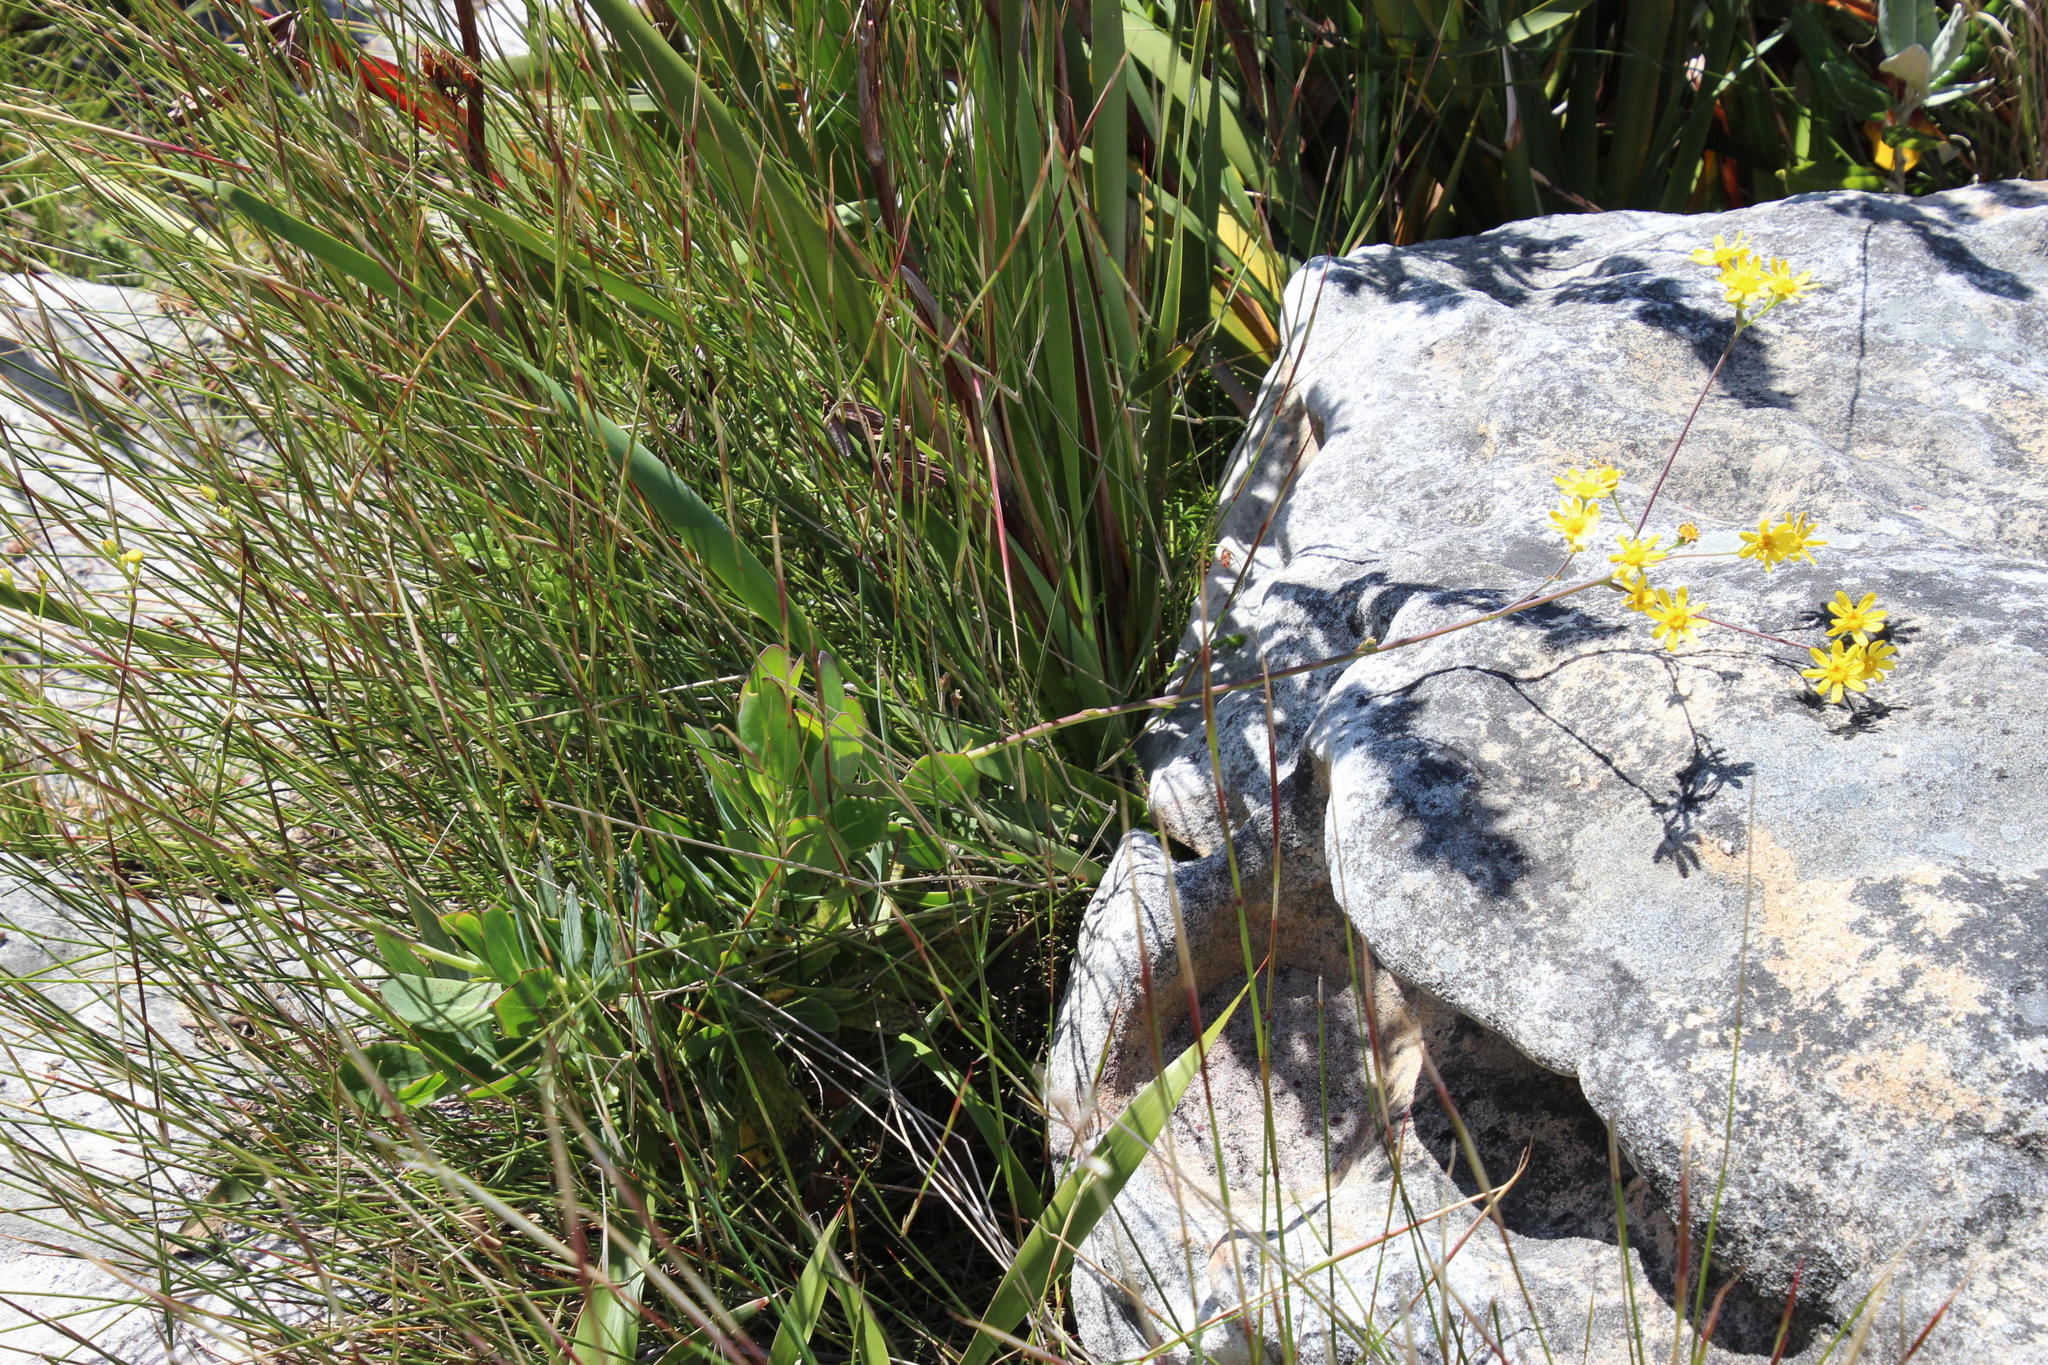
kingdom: Plantae
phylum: Tracheophyta
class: Magnoliopsida
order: Asterales
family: Asteraceae
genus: Othonna
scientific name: Othonna quinquedentata
